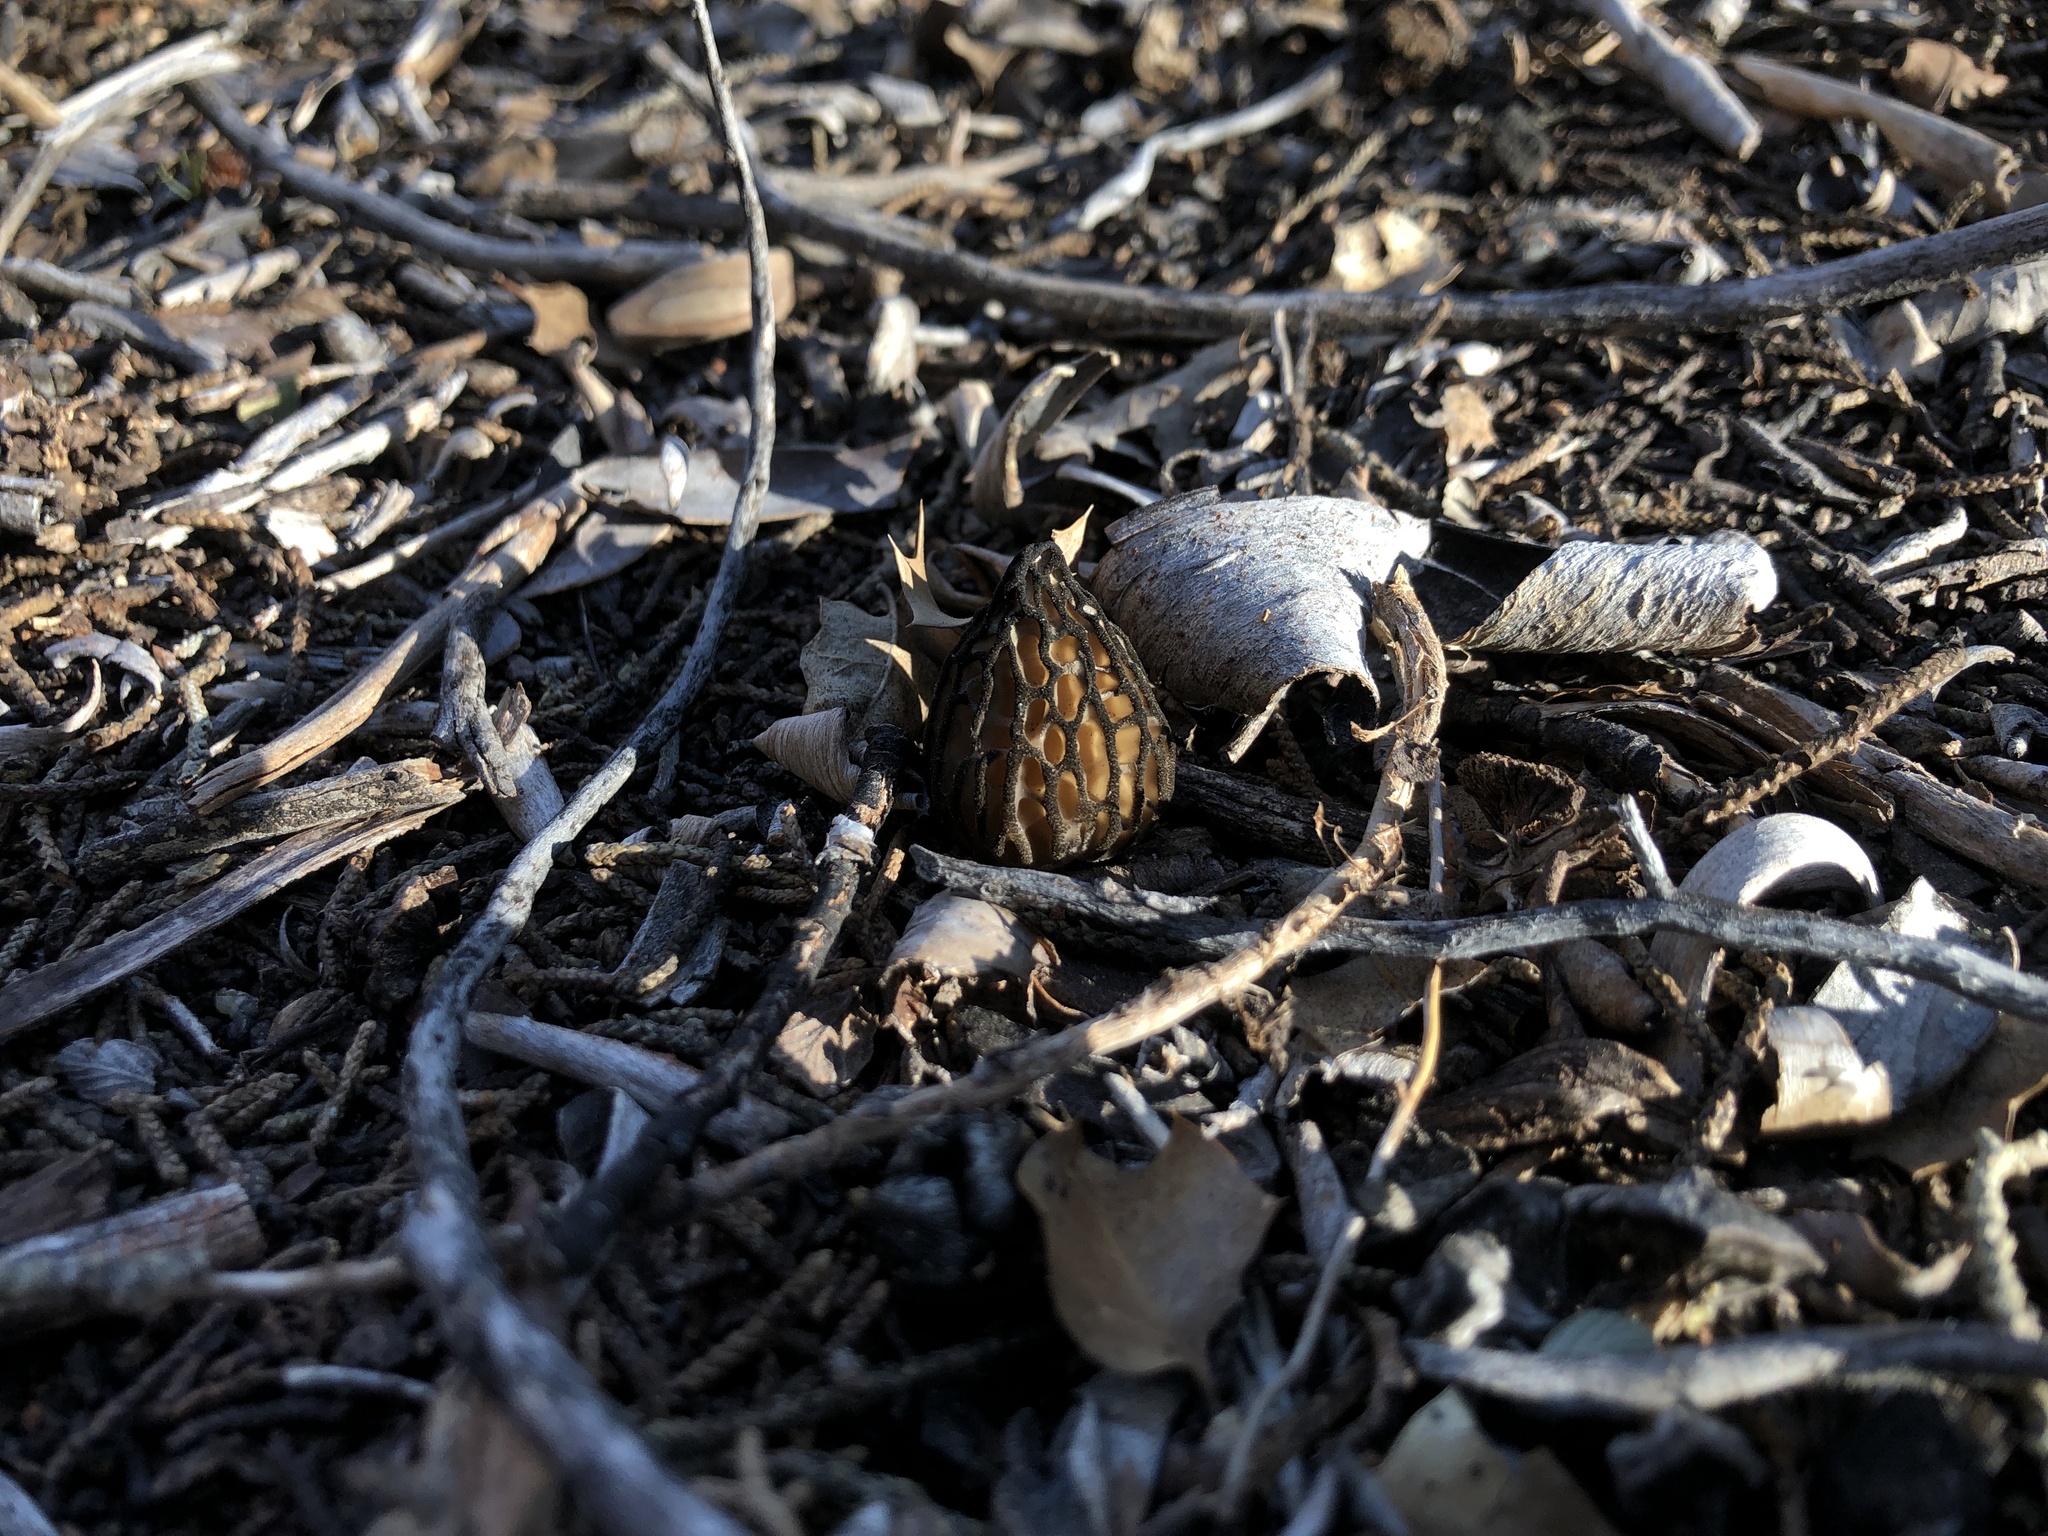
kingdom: Fungi
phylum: Ascomycota
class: Pezizomycetes
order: Pezizales
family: Morchellaceae
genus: Morchella
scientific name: Morchella brunnea
